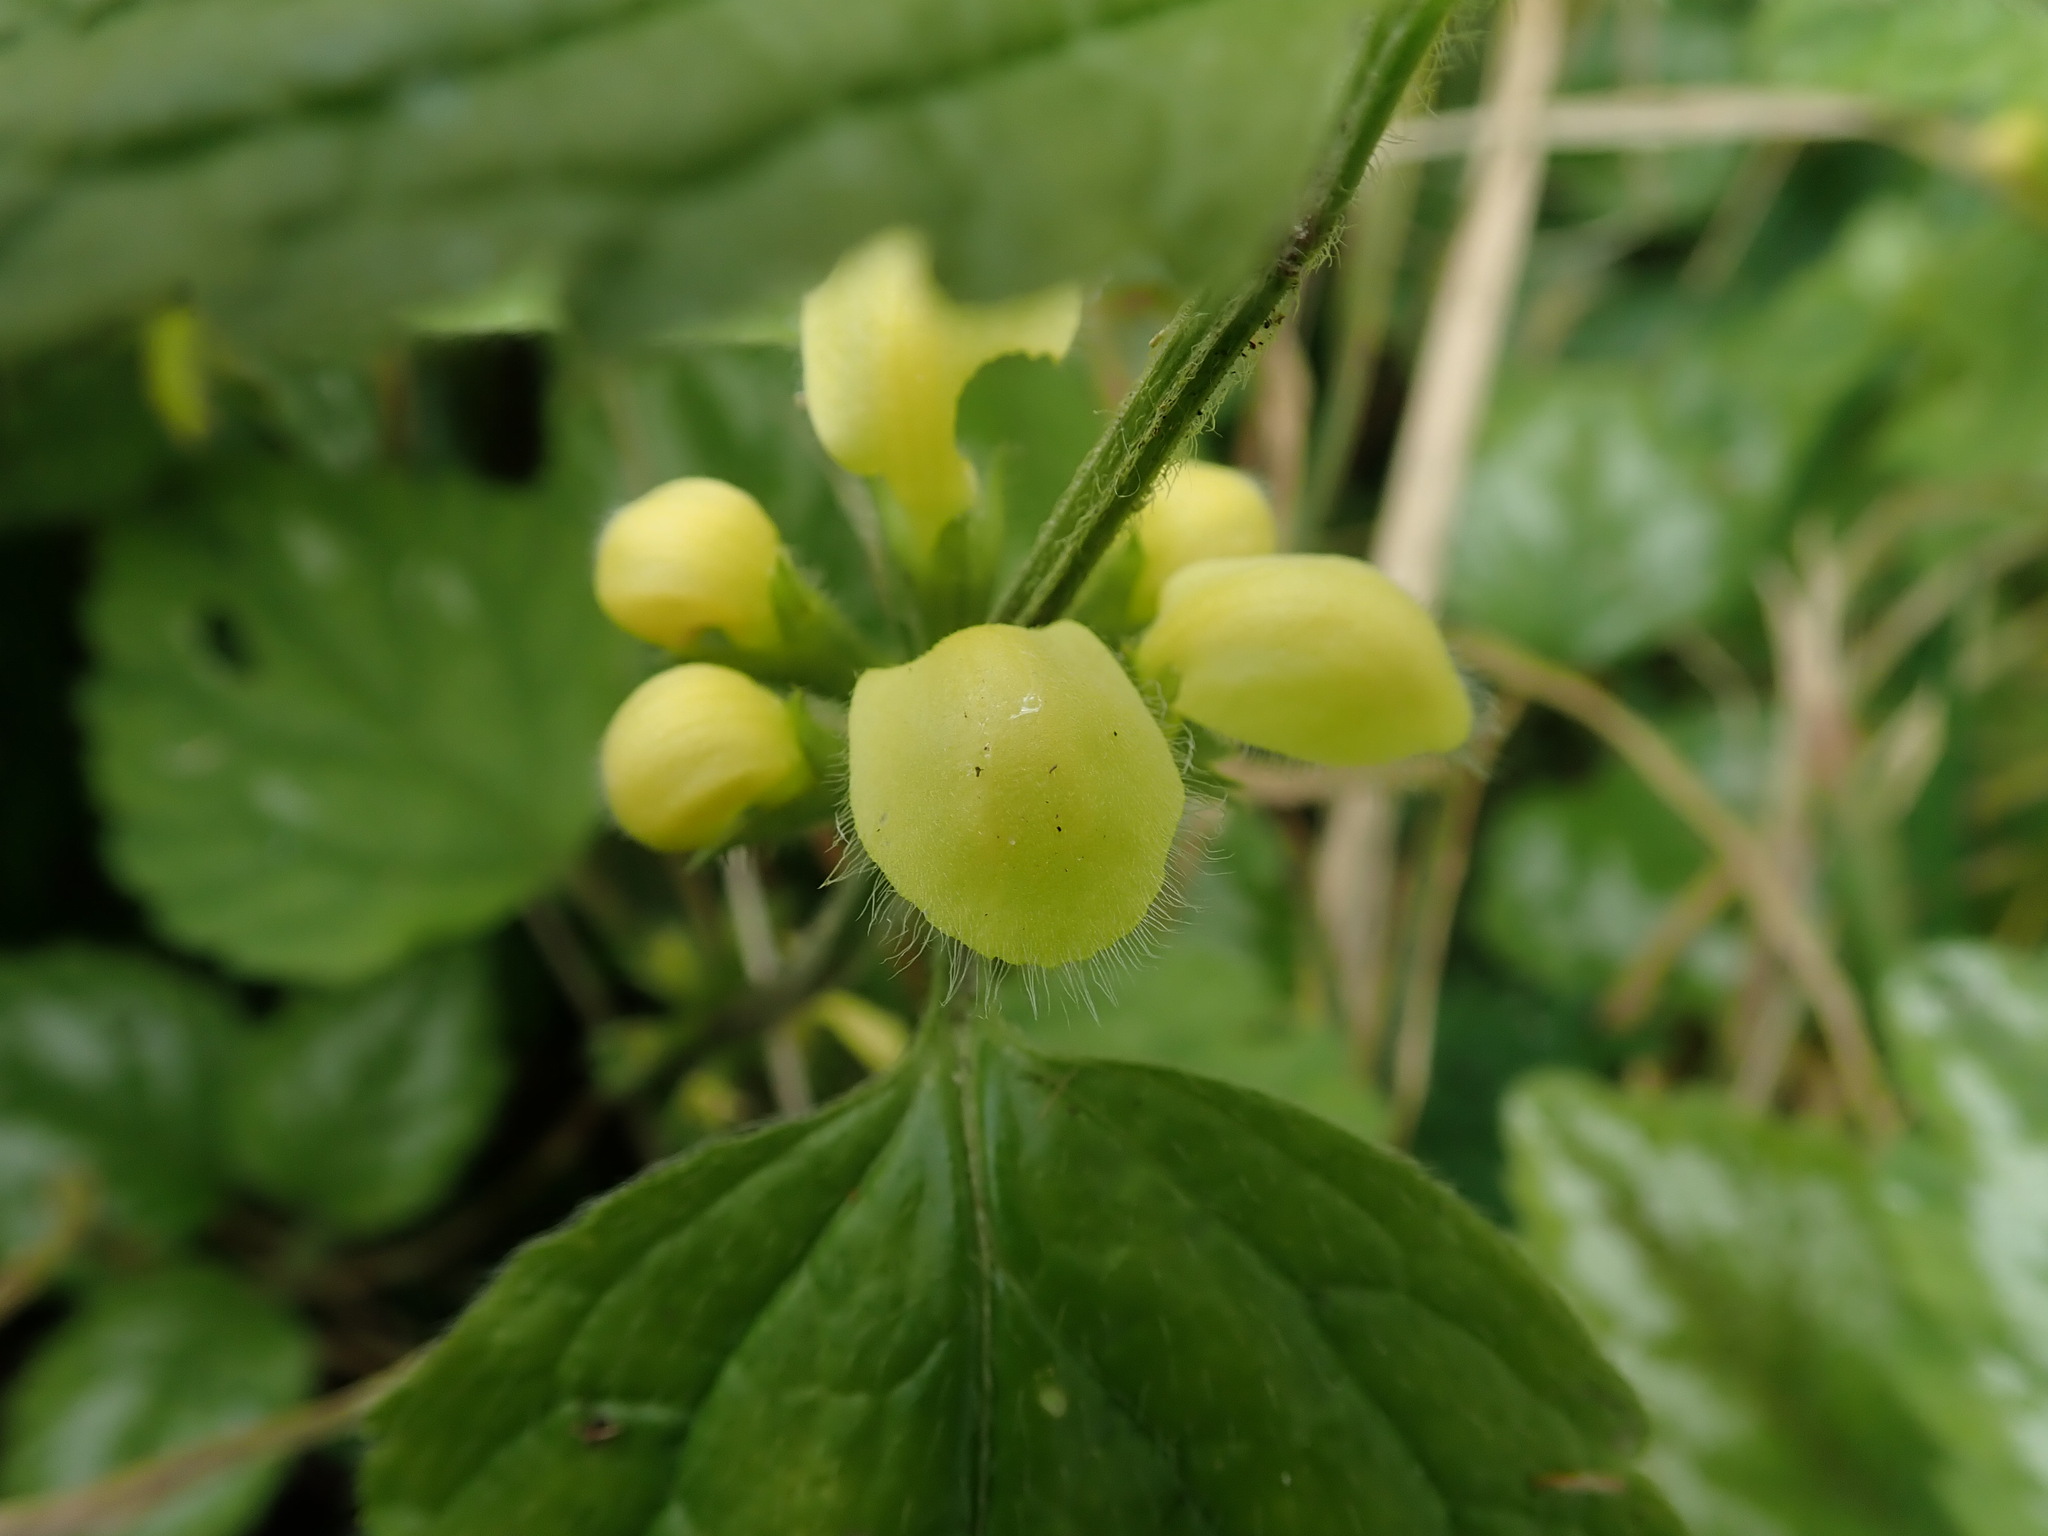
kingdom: Plantae
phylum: Tracheophyta
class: Magnoliopsida
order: Lamiales
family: Lamiaceae
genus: Lamium
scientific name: Lamium galeobdolon
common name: Yellow archangel
